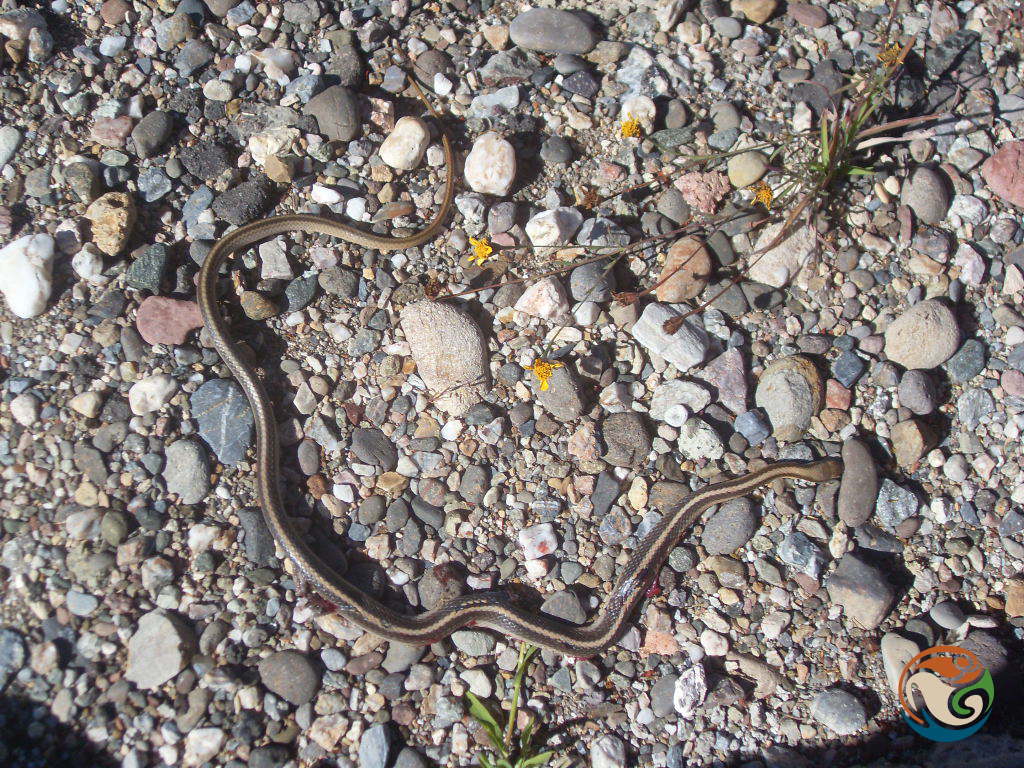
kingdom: Animalia
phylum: Chordata
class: Squamata
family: Colubridae
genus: Salvadora
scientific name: Salvadora intermedia
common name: Oaxacan patchnose snake
